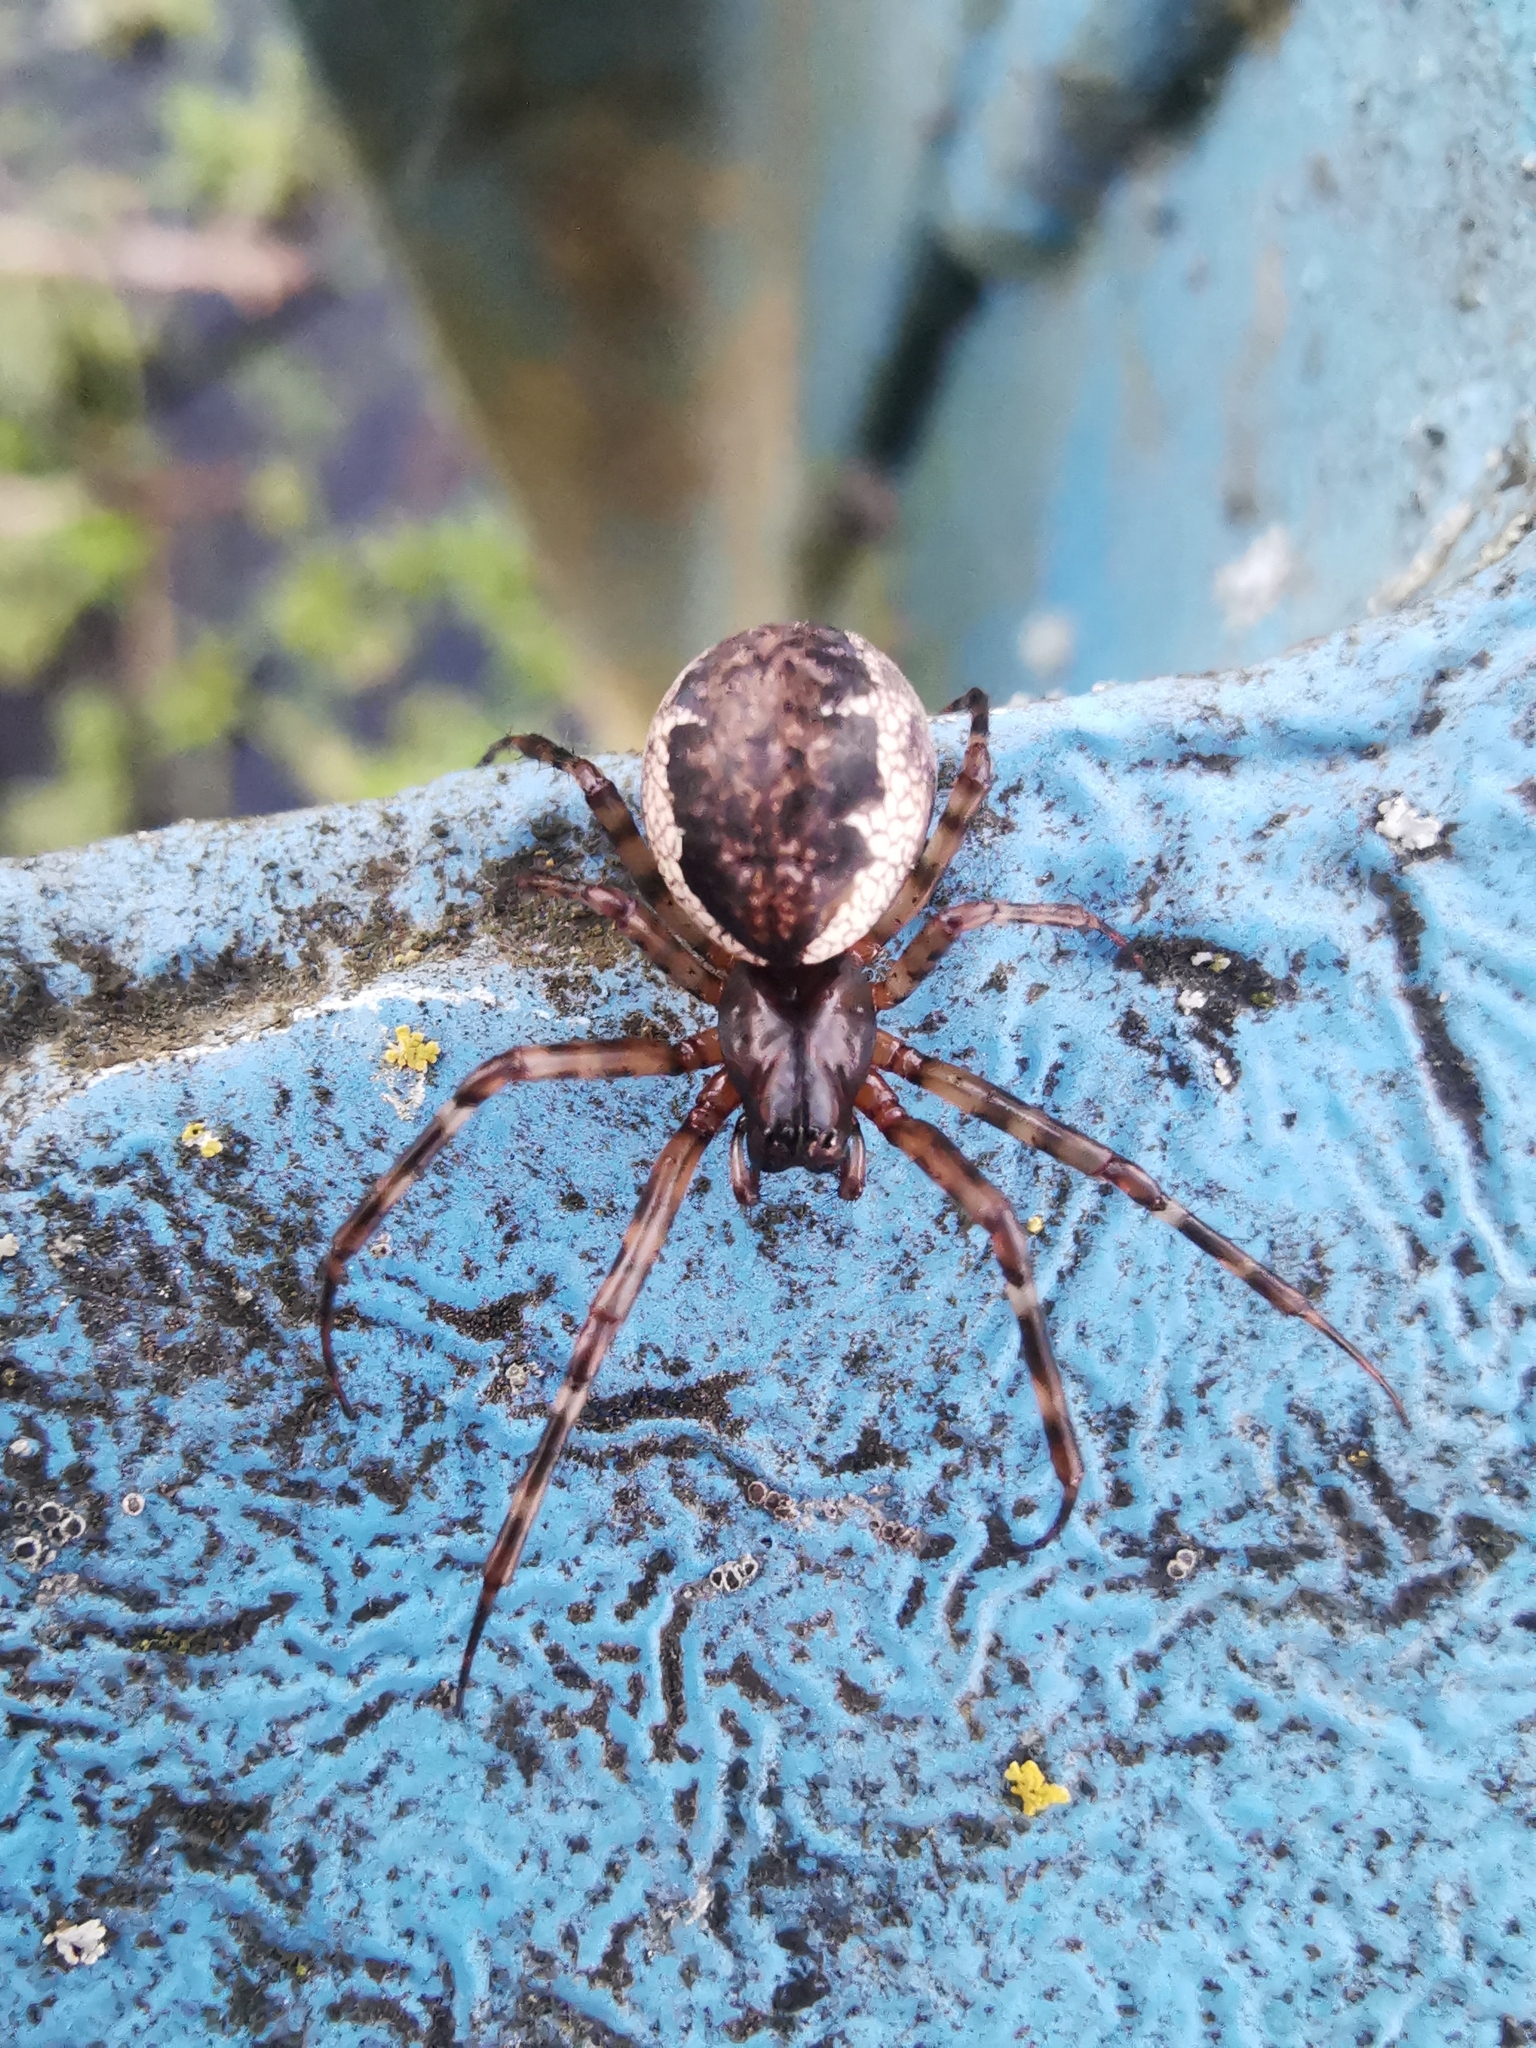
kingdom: Animalia
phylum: Arthropoda
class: Arachnida
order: Araneae
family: Linyphiidae
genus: Neriene
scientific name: Neriene montana
